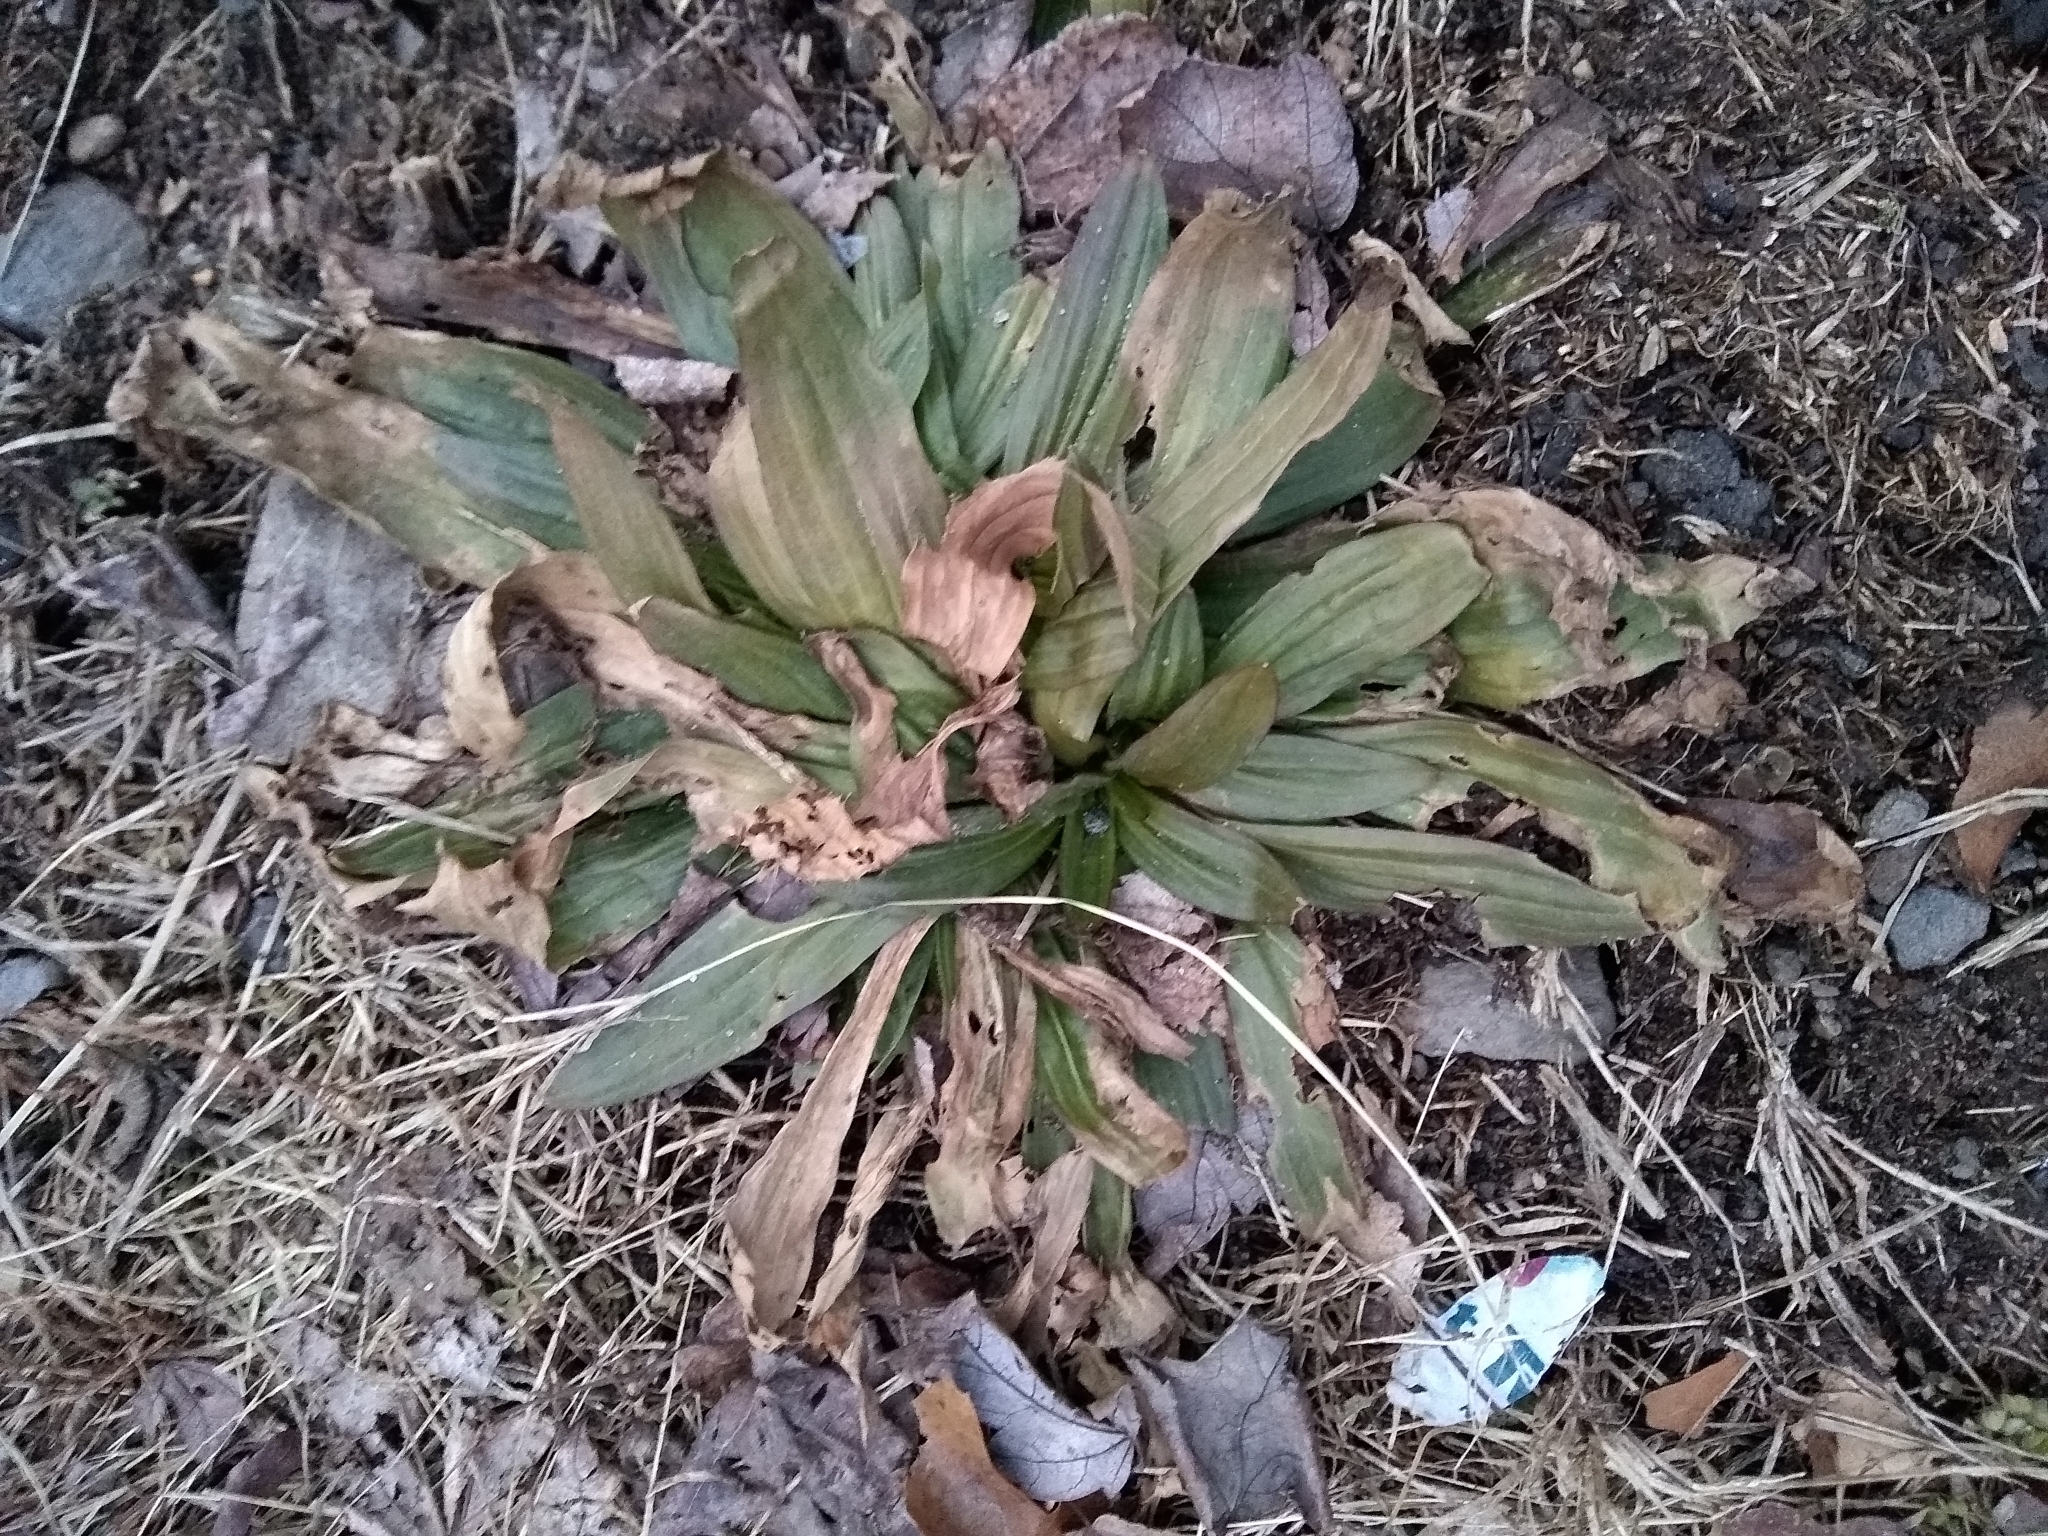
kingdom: Plantae
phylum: Tracheophyta
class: Magnoliopsida
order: Lamiales
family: Plantaginaceae
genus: Plantago
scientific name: Plantago lanceolata
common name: Ribwort plantain
